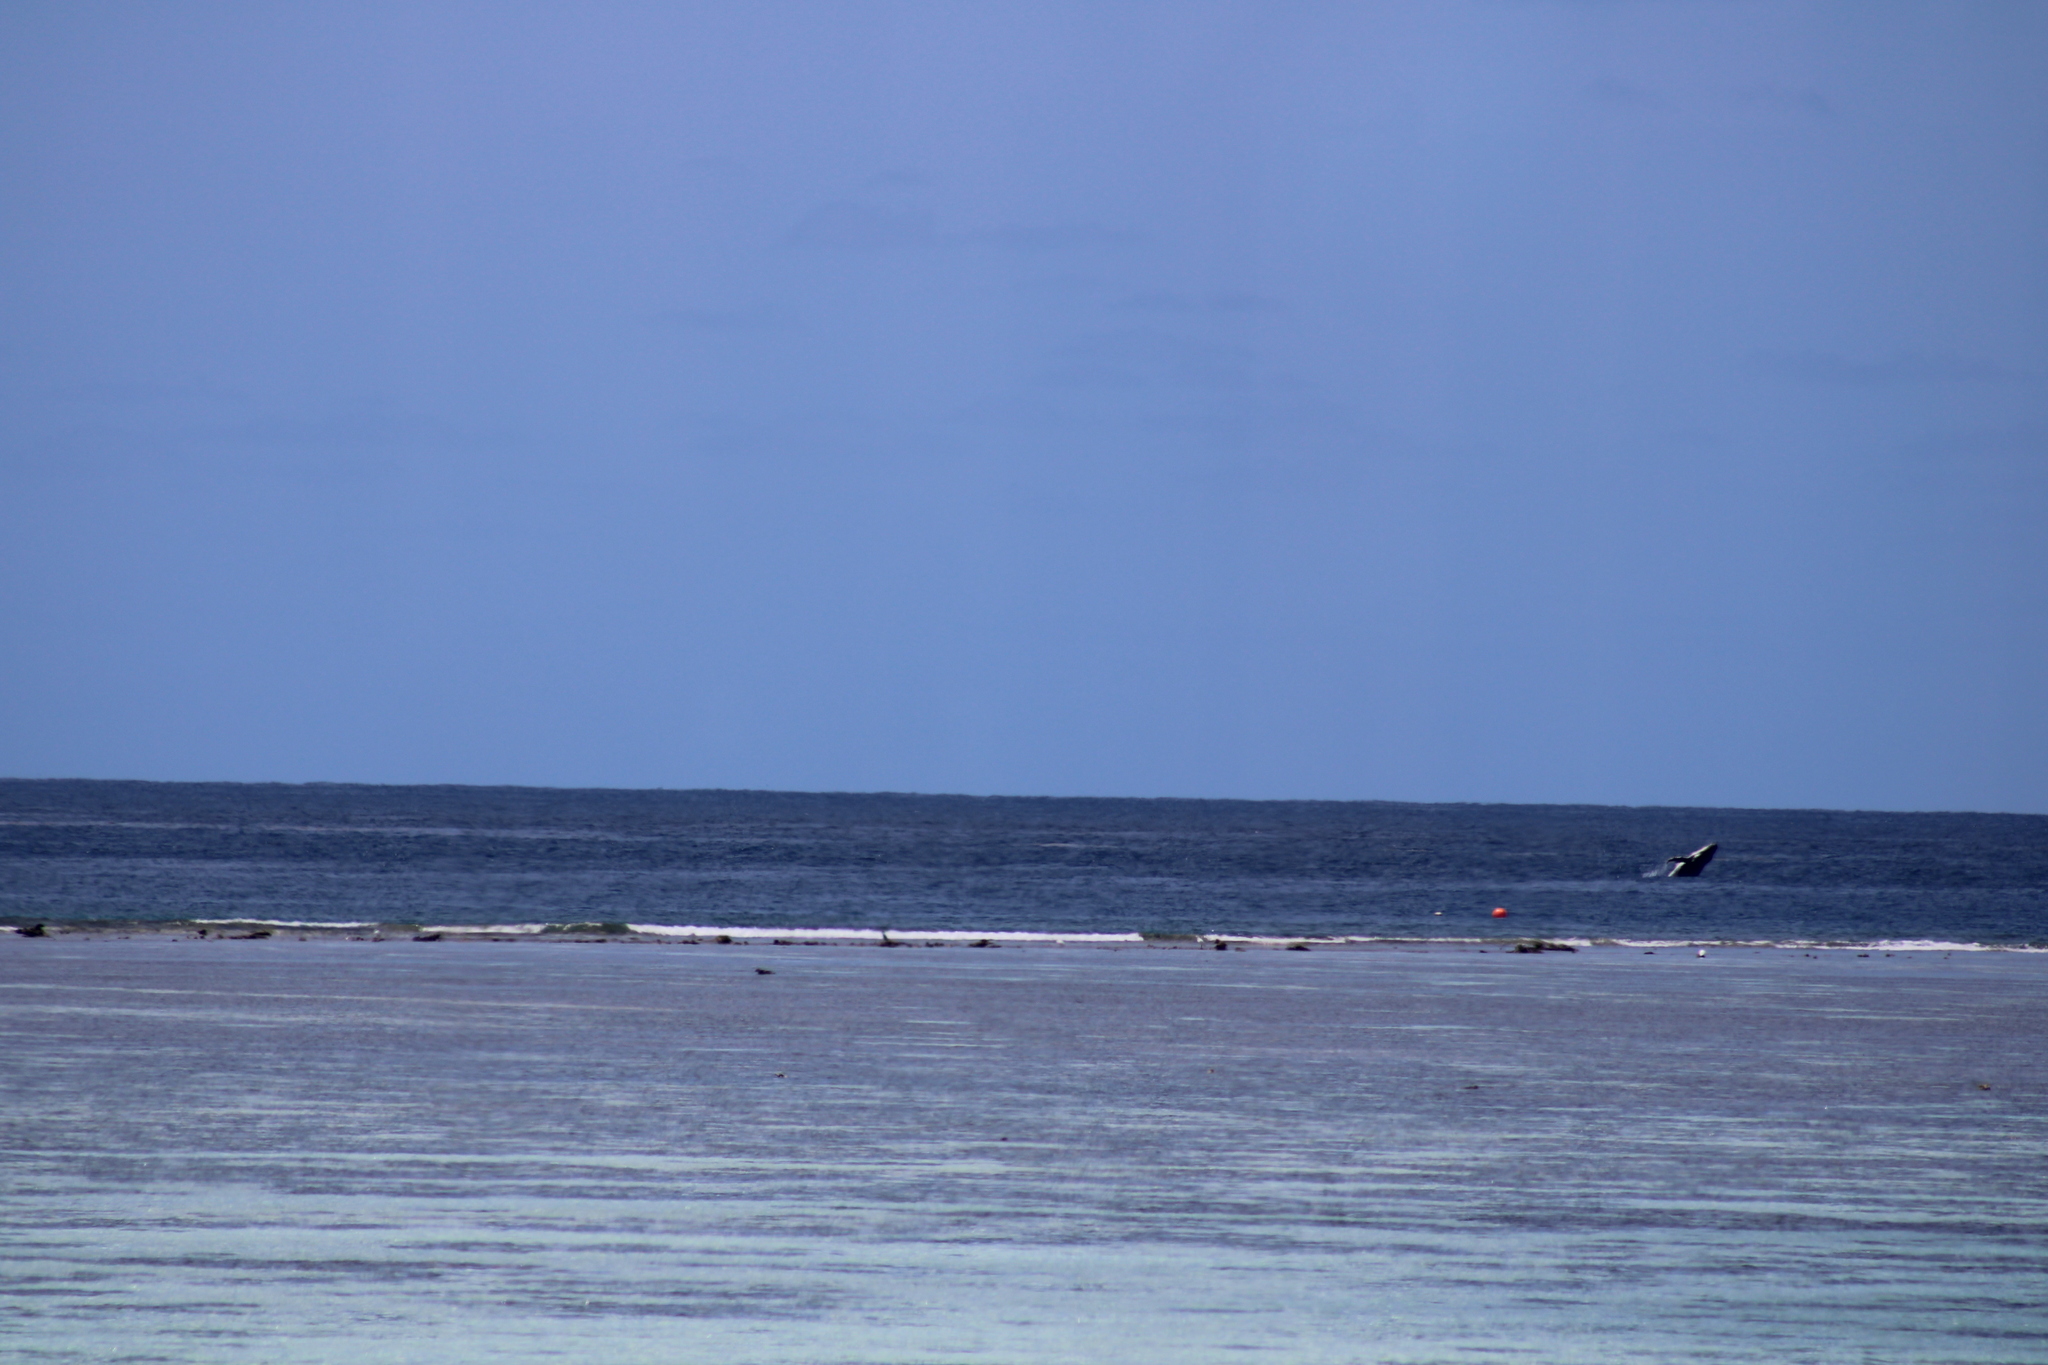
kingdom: Animalia
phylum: Chordata
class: Mammalia
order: Cetacea
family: Balaenopteridae
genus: Megaptera
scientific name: Megaptera novaeangliae
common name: Humpback whale
